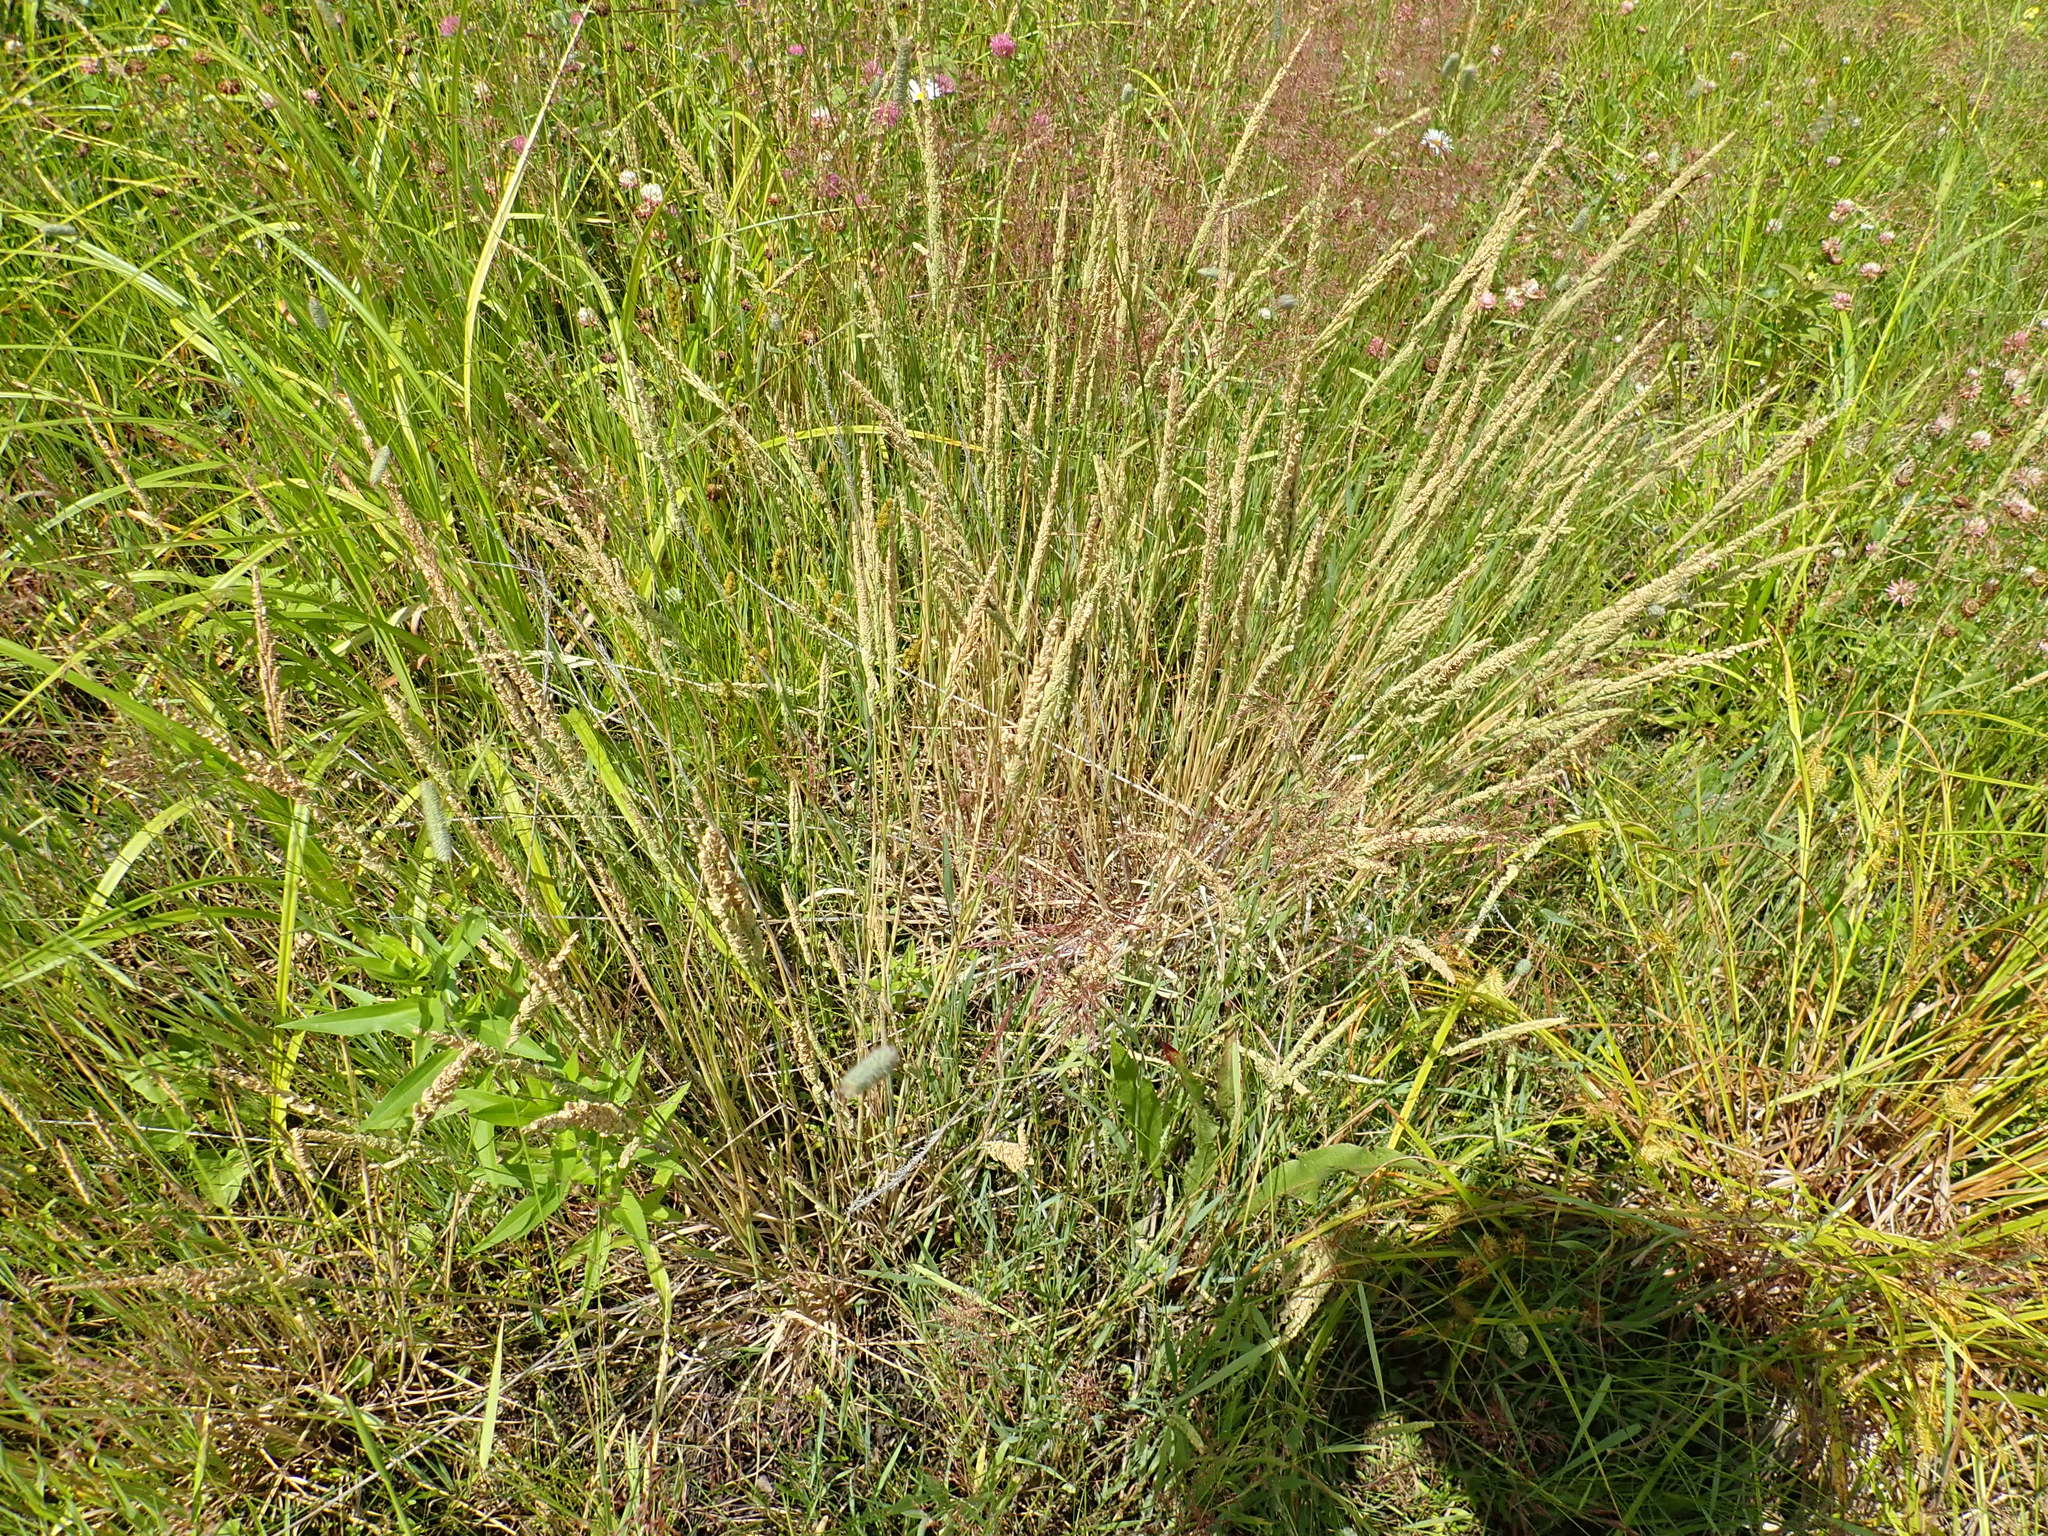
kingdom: Plantae
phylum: Tracheophyta
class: Liliopsida
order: Poales
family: Poaceae
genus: Beckmannia
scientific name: Beckmannia syzigachne
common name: American slough-grass
